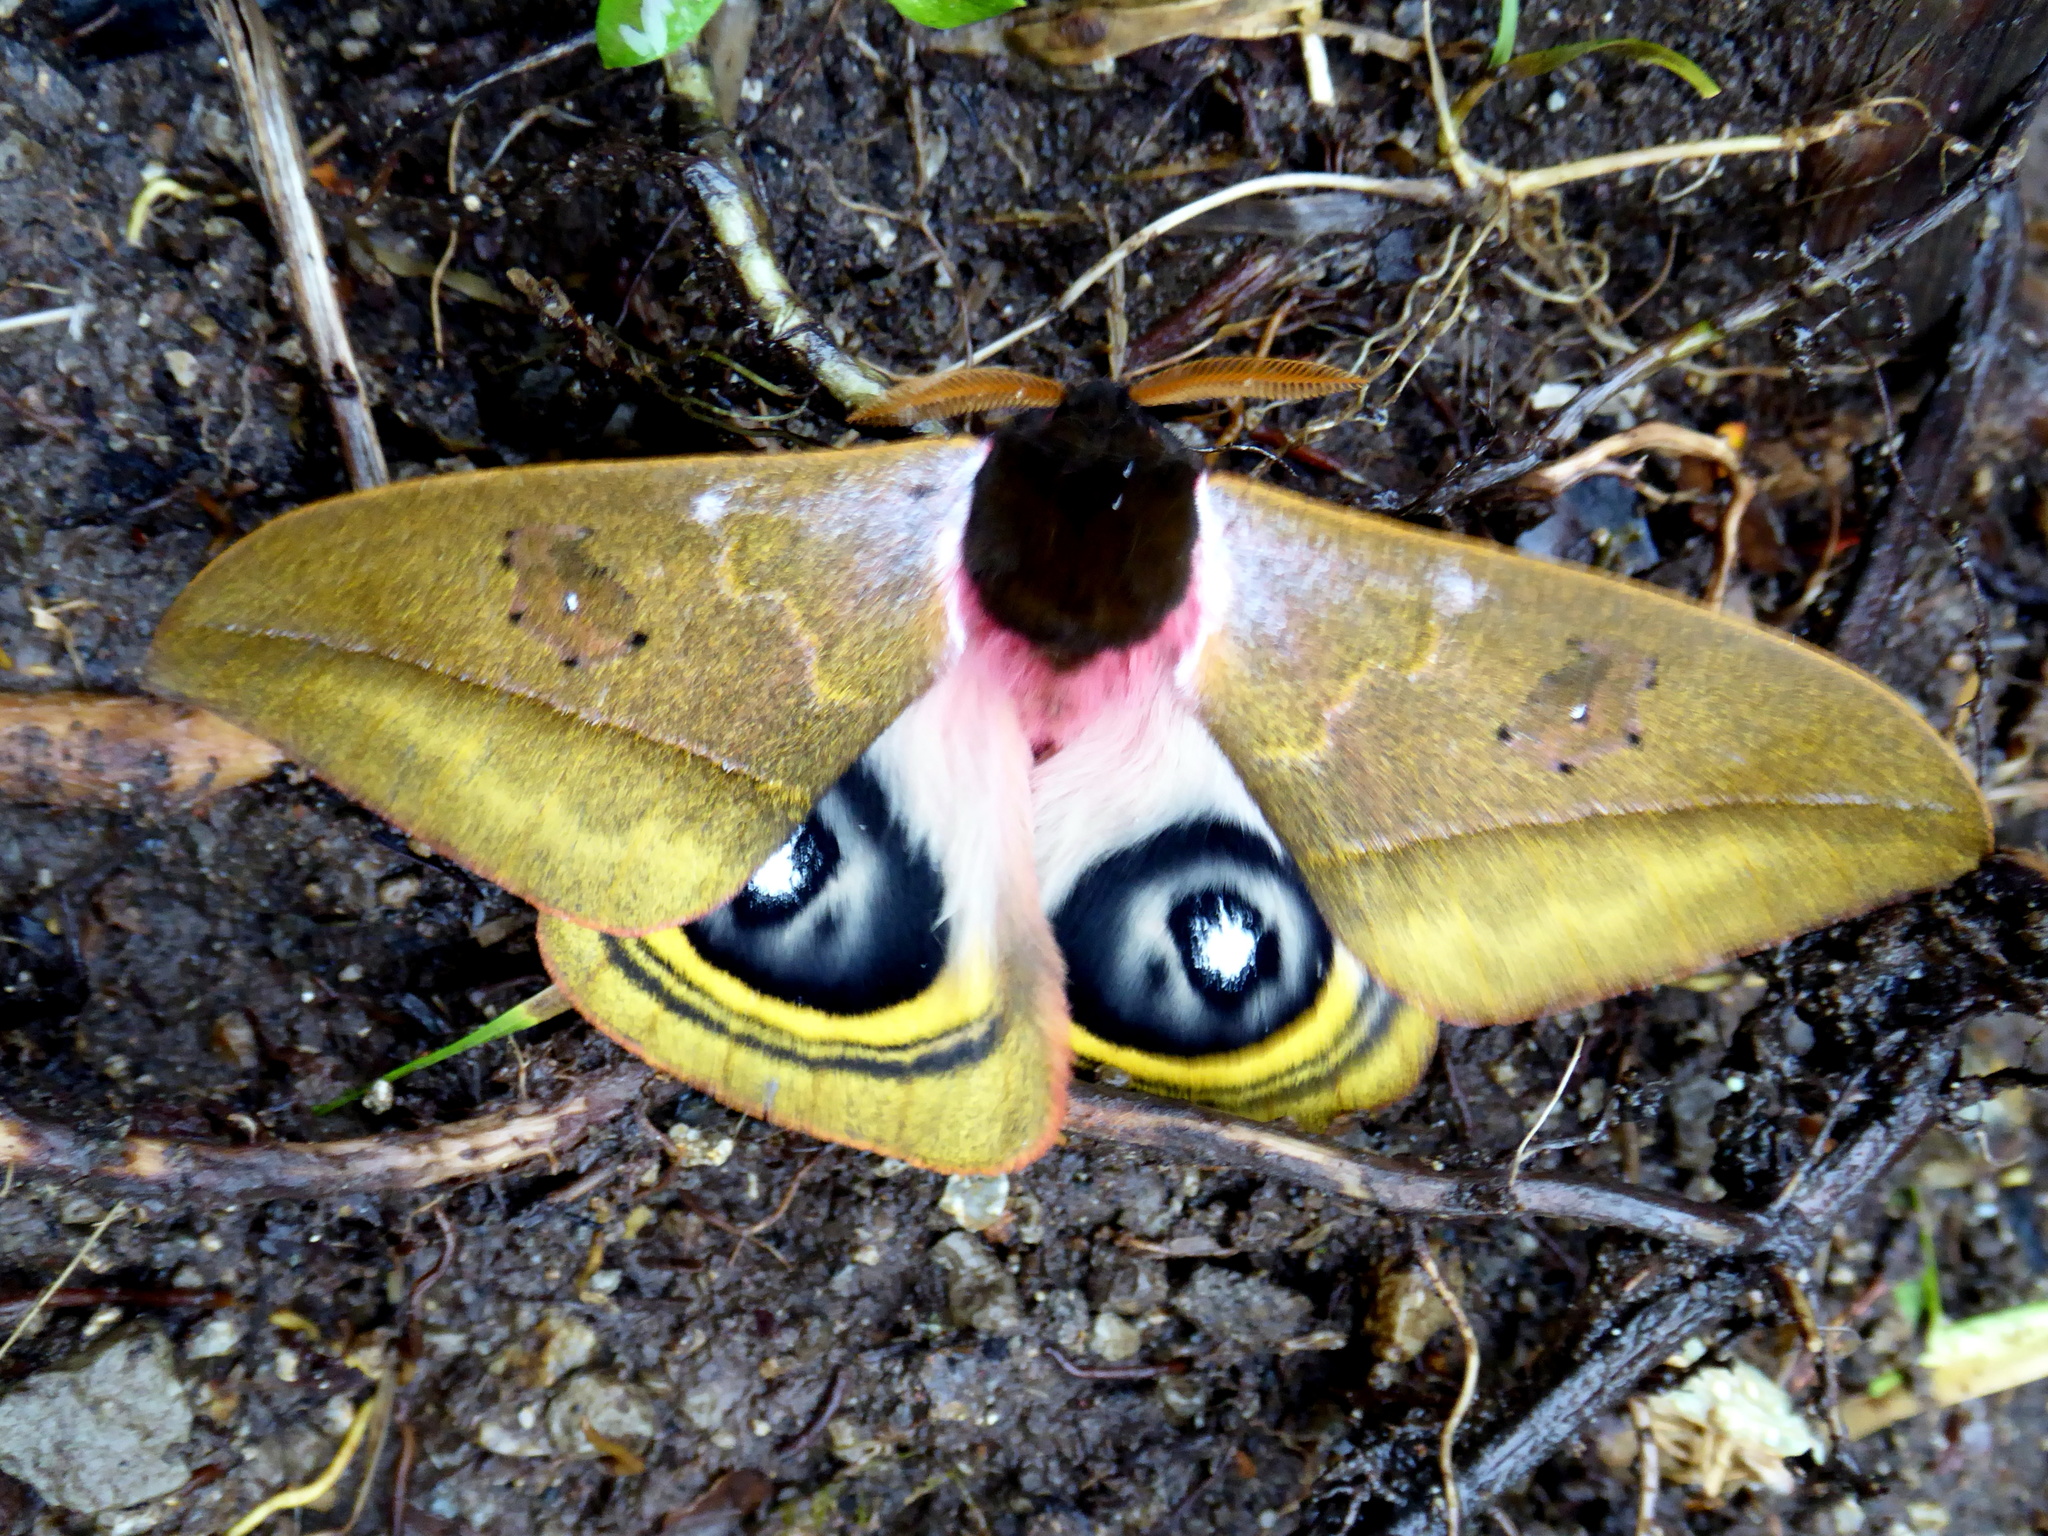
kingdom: Animalia
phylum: Arthropoda
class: Insecta
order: Lepidoptera
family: Saturniidae
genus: Automeris
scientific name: Automeris kopturae
